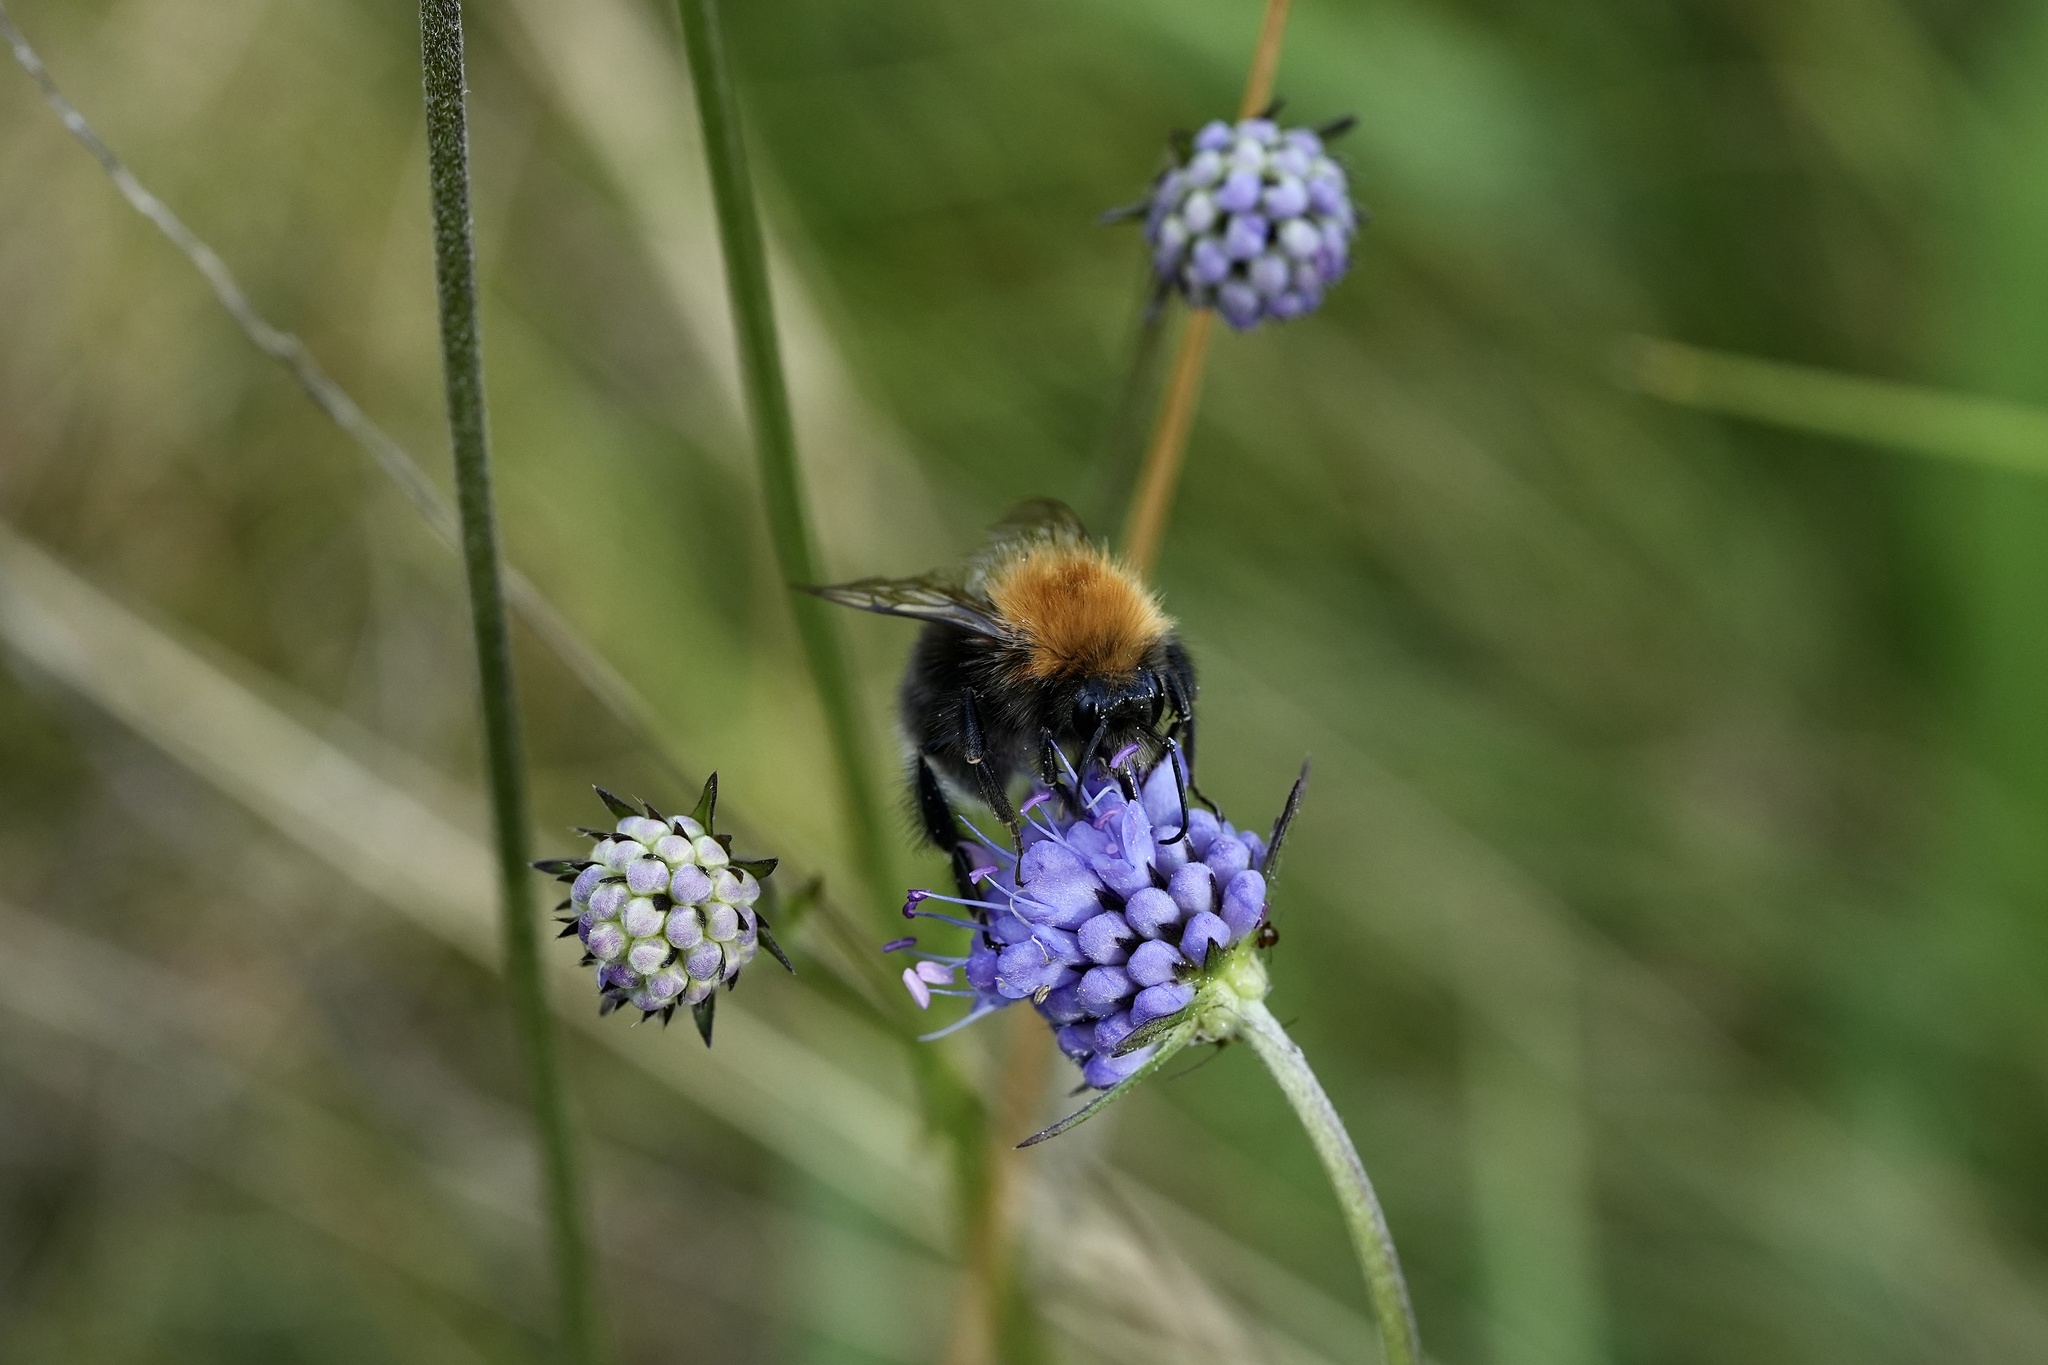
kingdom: Animalia
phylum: Arthropoda
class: Insecta
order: Hymenoptera
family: Apidae
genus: Bombus
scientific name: Bombus hypnorum
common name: New garden bumblebee
